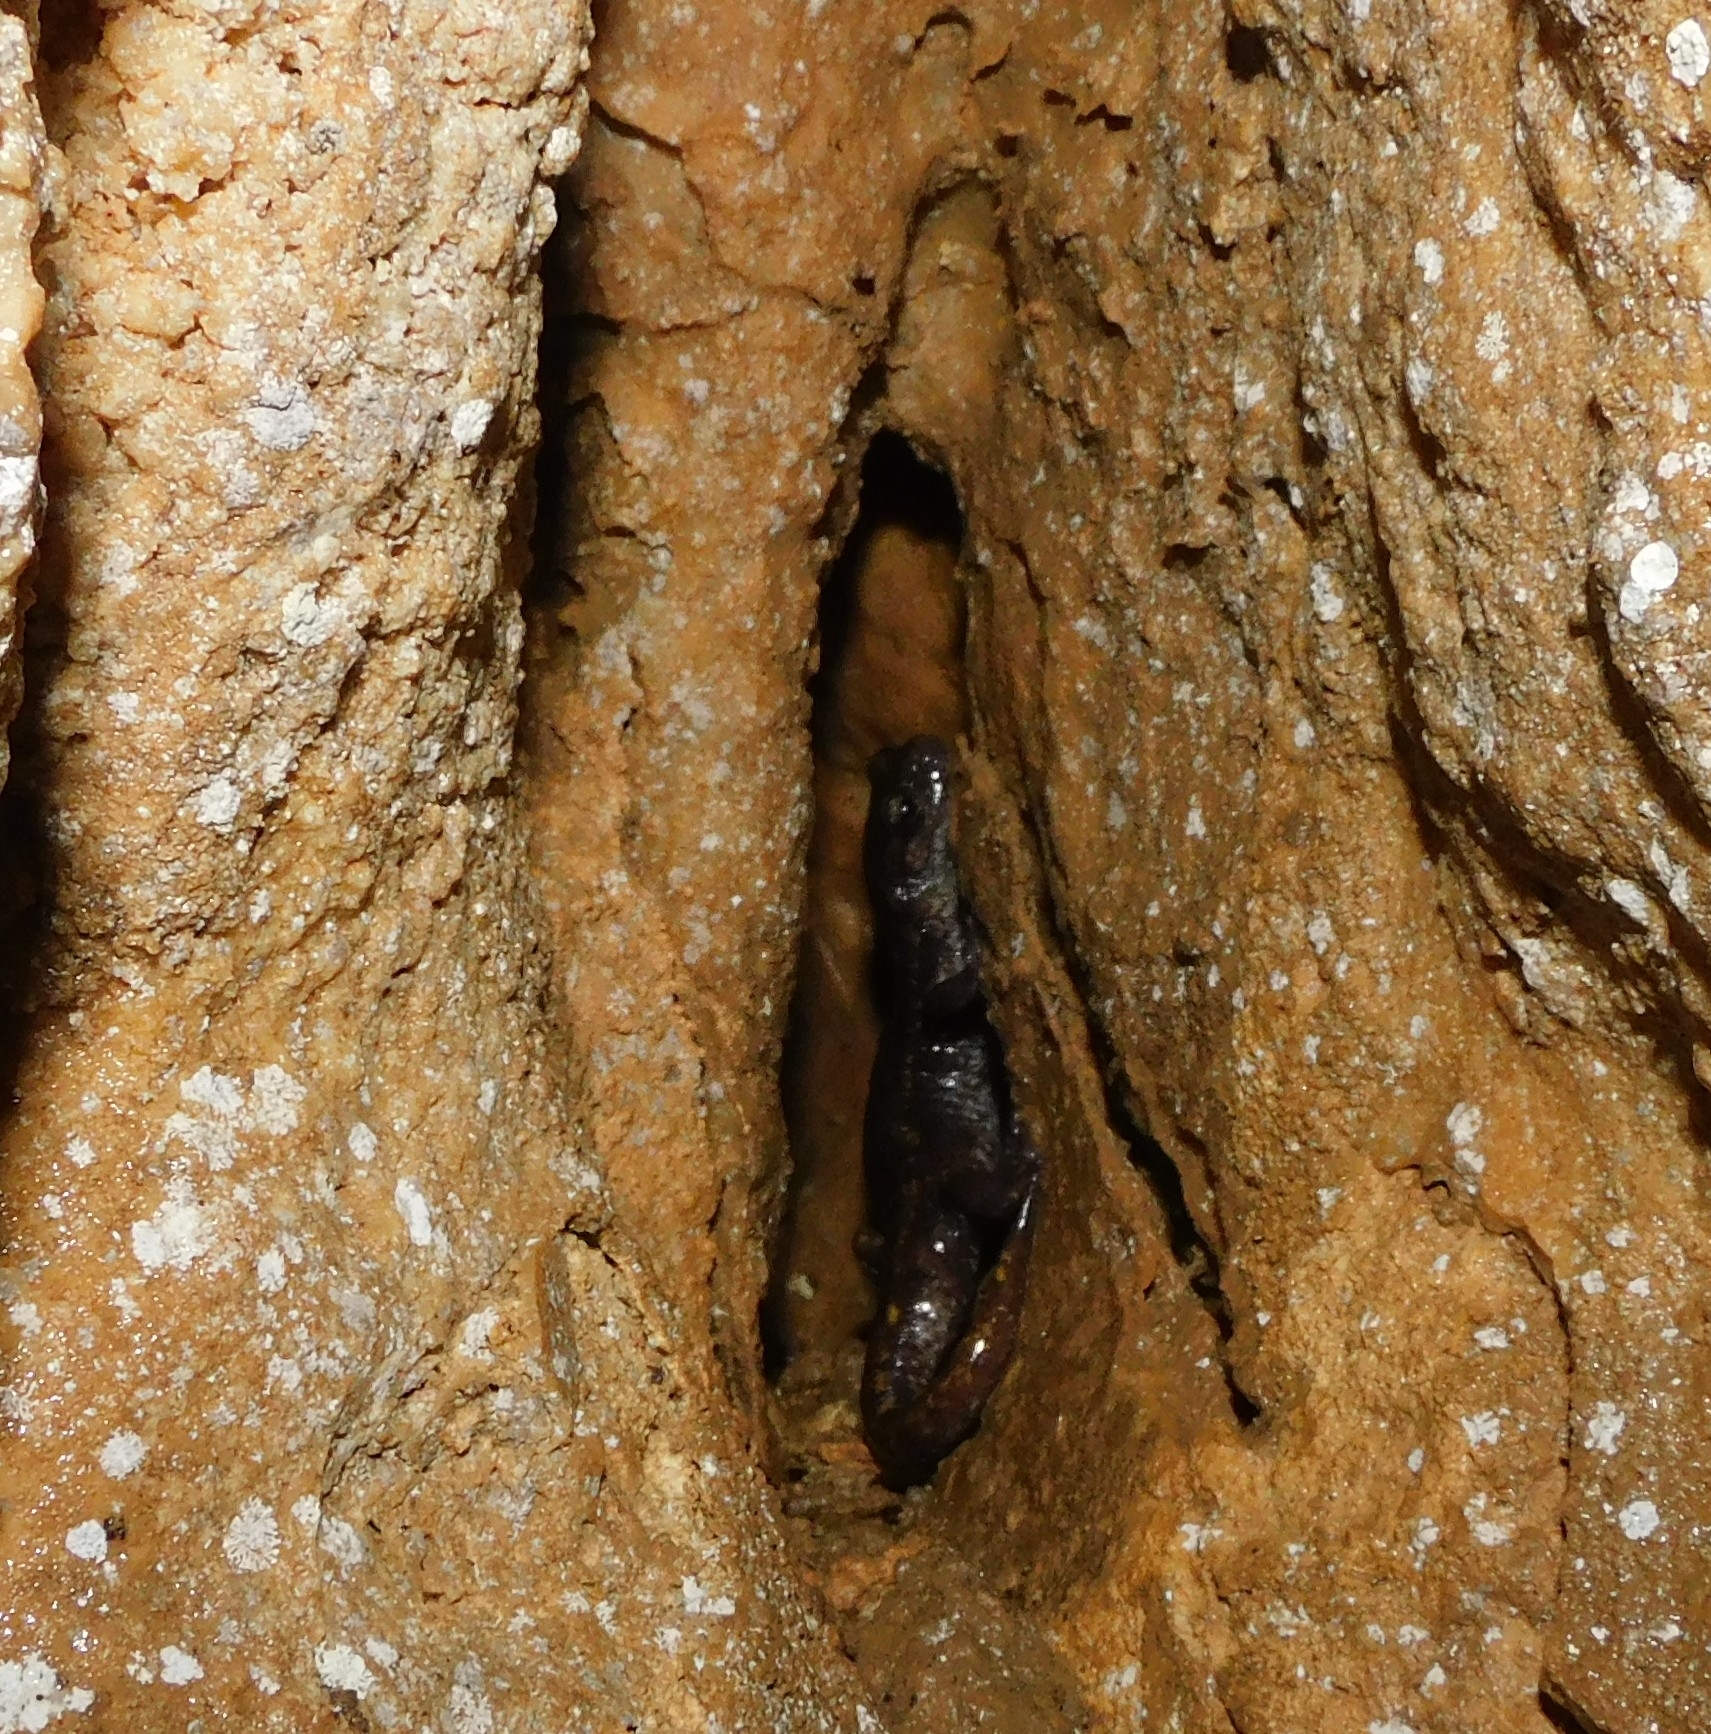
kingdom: Animalia
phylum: Chordata
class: Amphibia
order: Caudata
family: Plethodontidae
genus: Speleomantes
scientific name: Speleomantes strinatii
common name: French cave salamander
